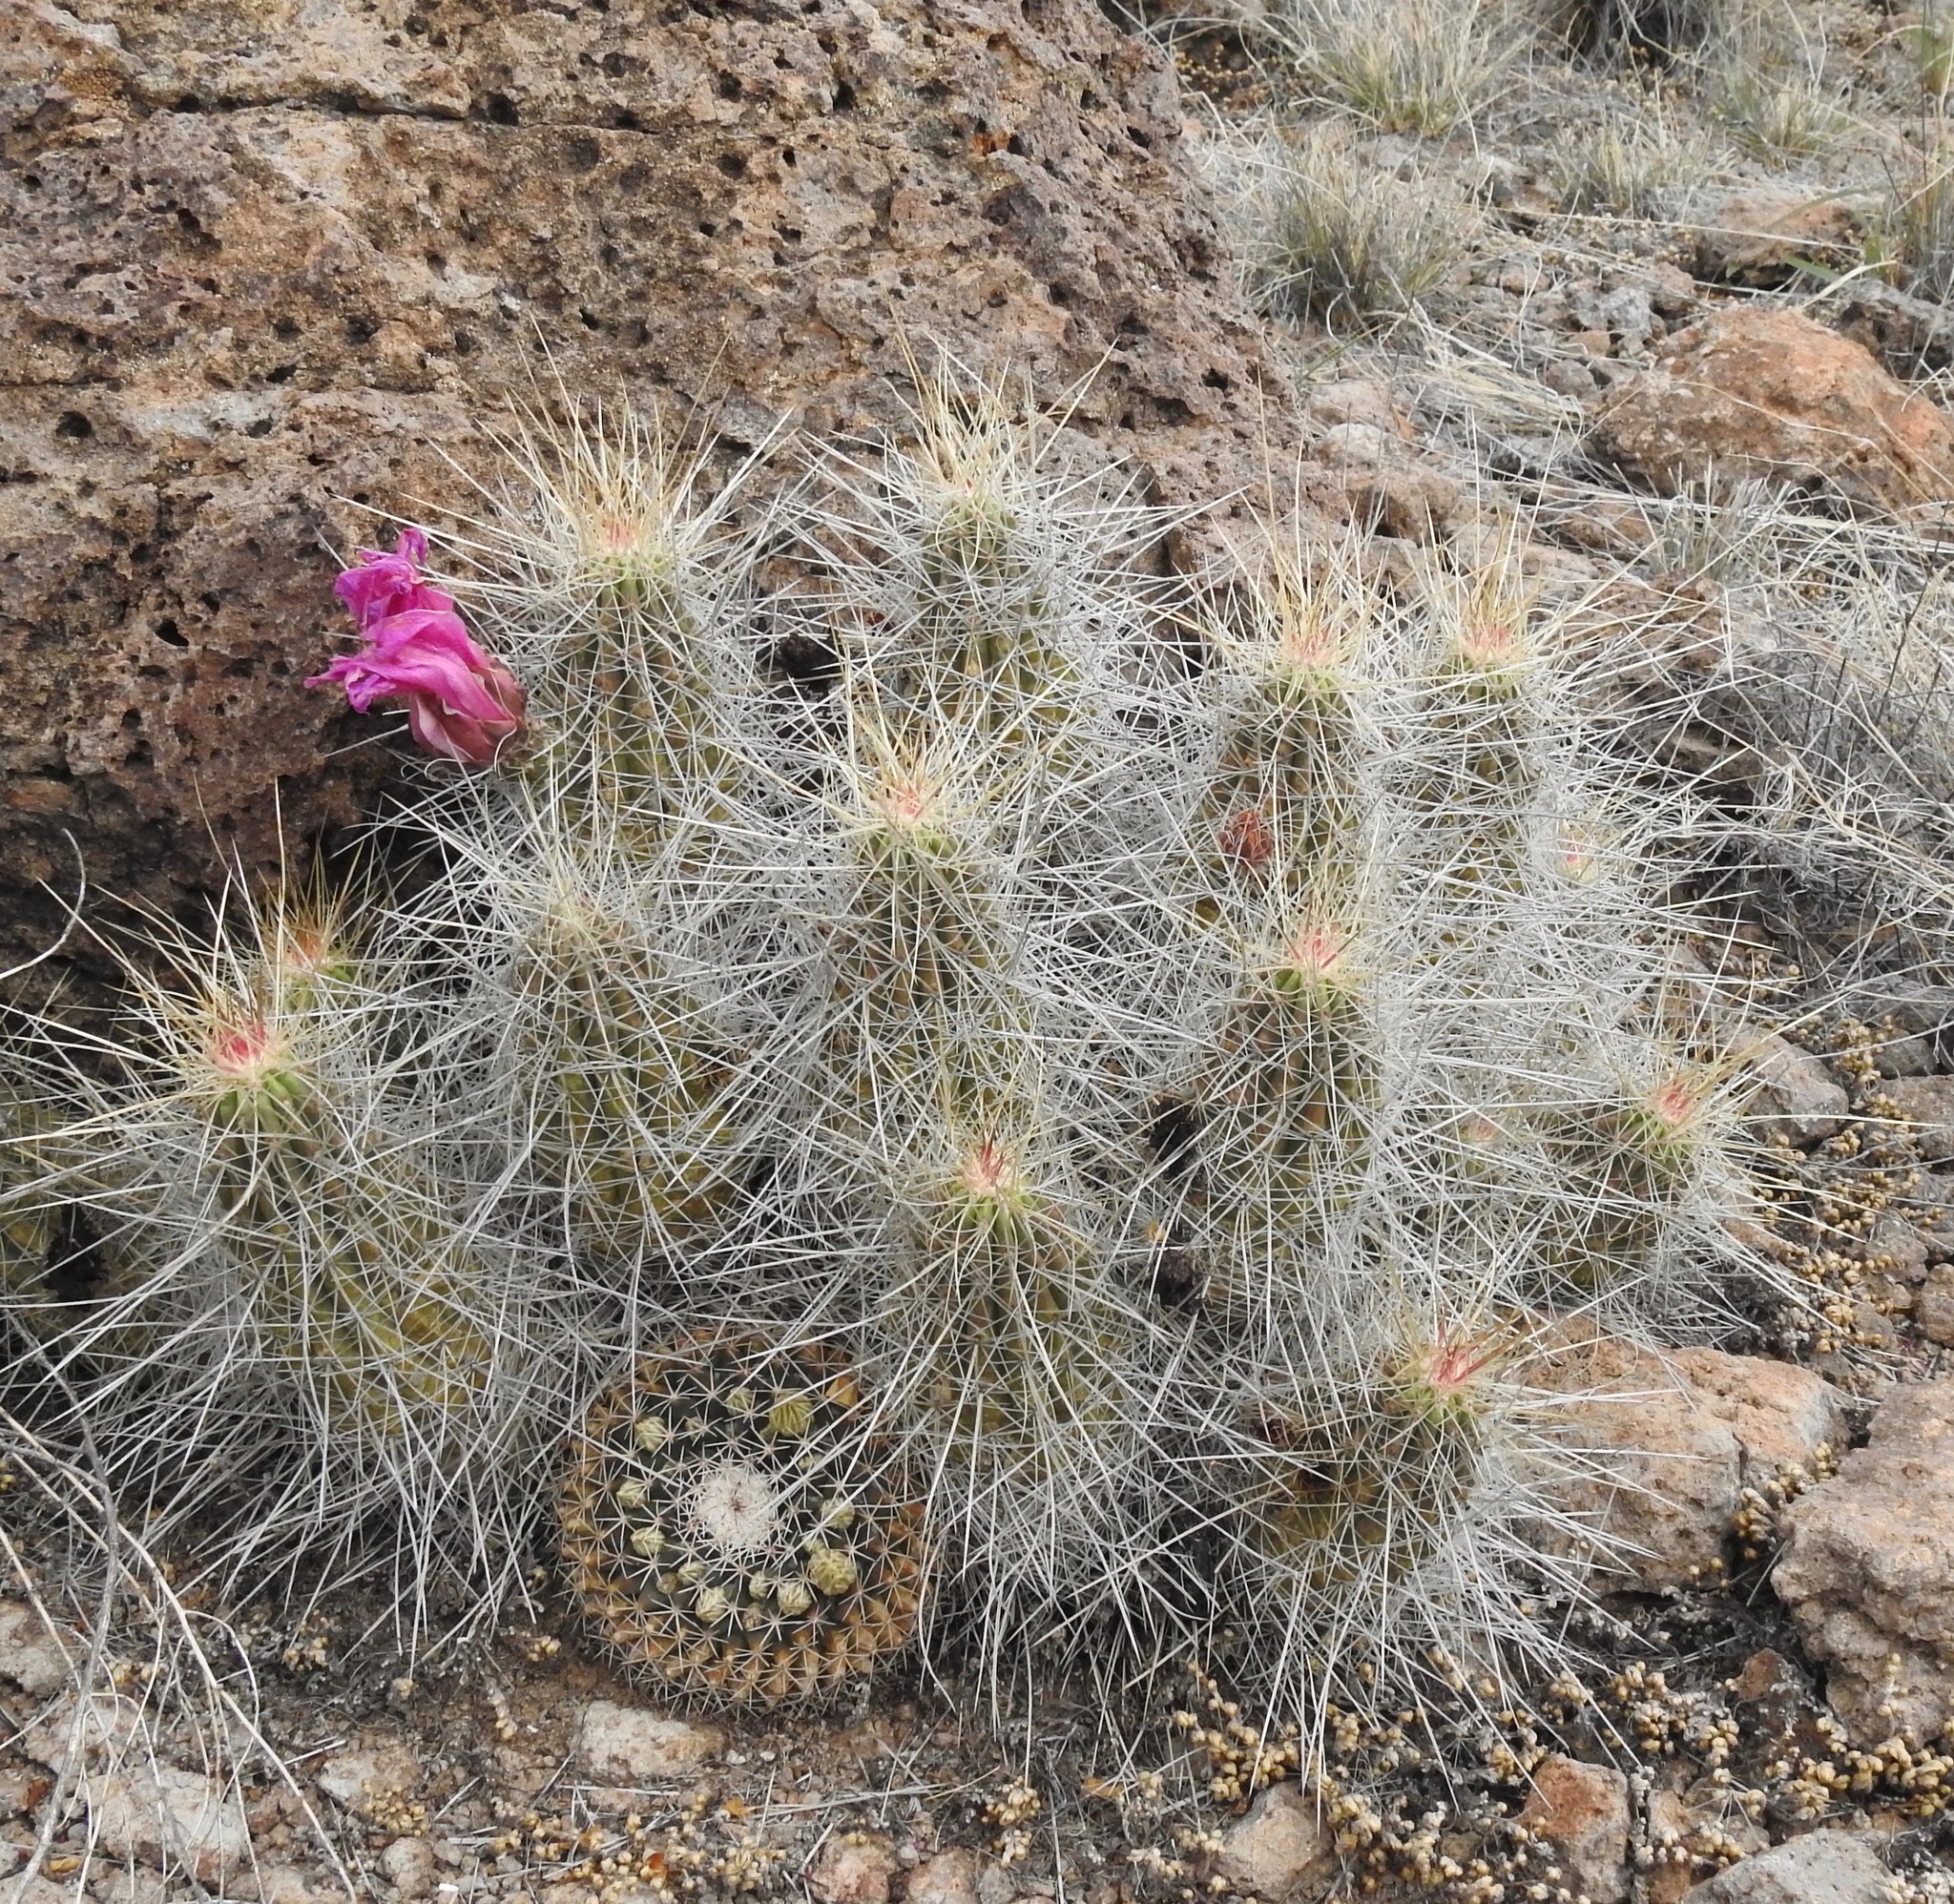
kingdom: Plantae
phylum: Tracheophyta
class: Magnoliopsida
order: Caryophyllales
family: Cactaceae
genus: Echinocereus
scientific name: Echinocereus stramineus
